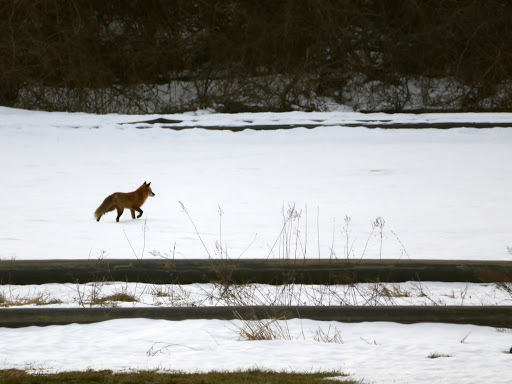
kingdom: Animalia
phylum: Chordata
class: Mammalia
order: Carnivora
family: Canidae
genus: Vulpes
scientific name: Vulpes vulpes
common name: Red fox
